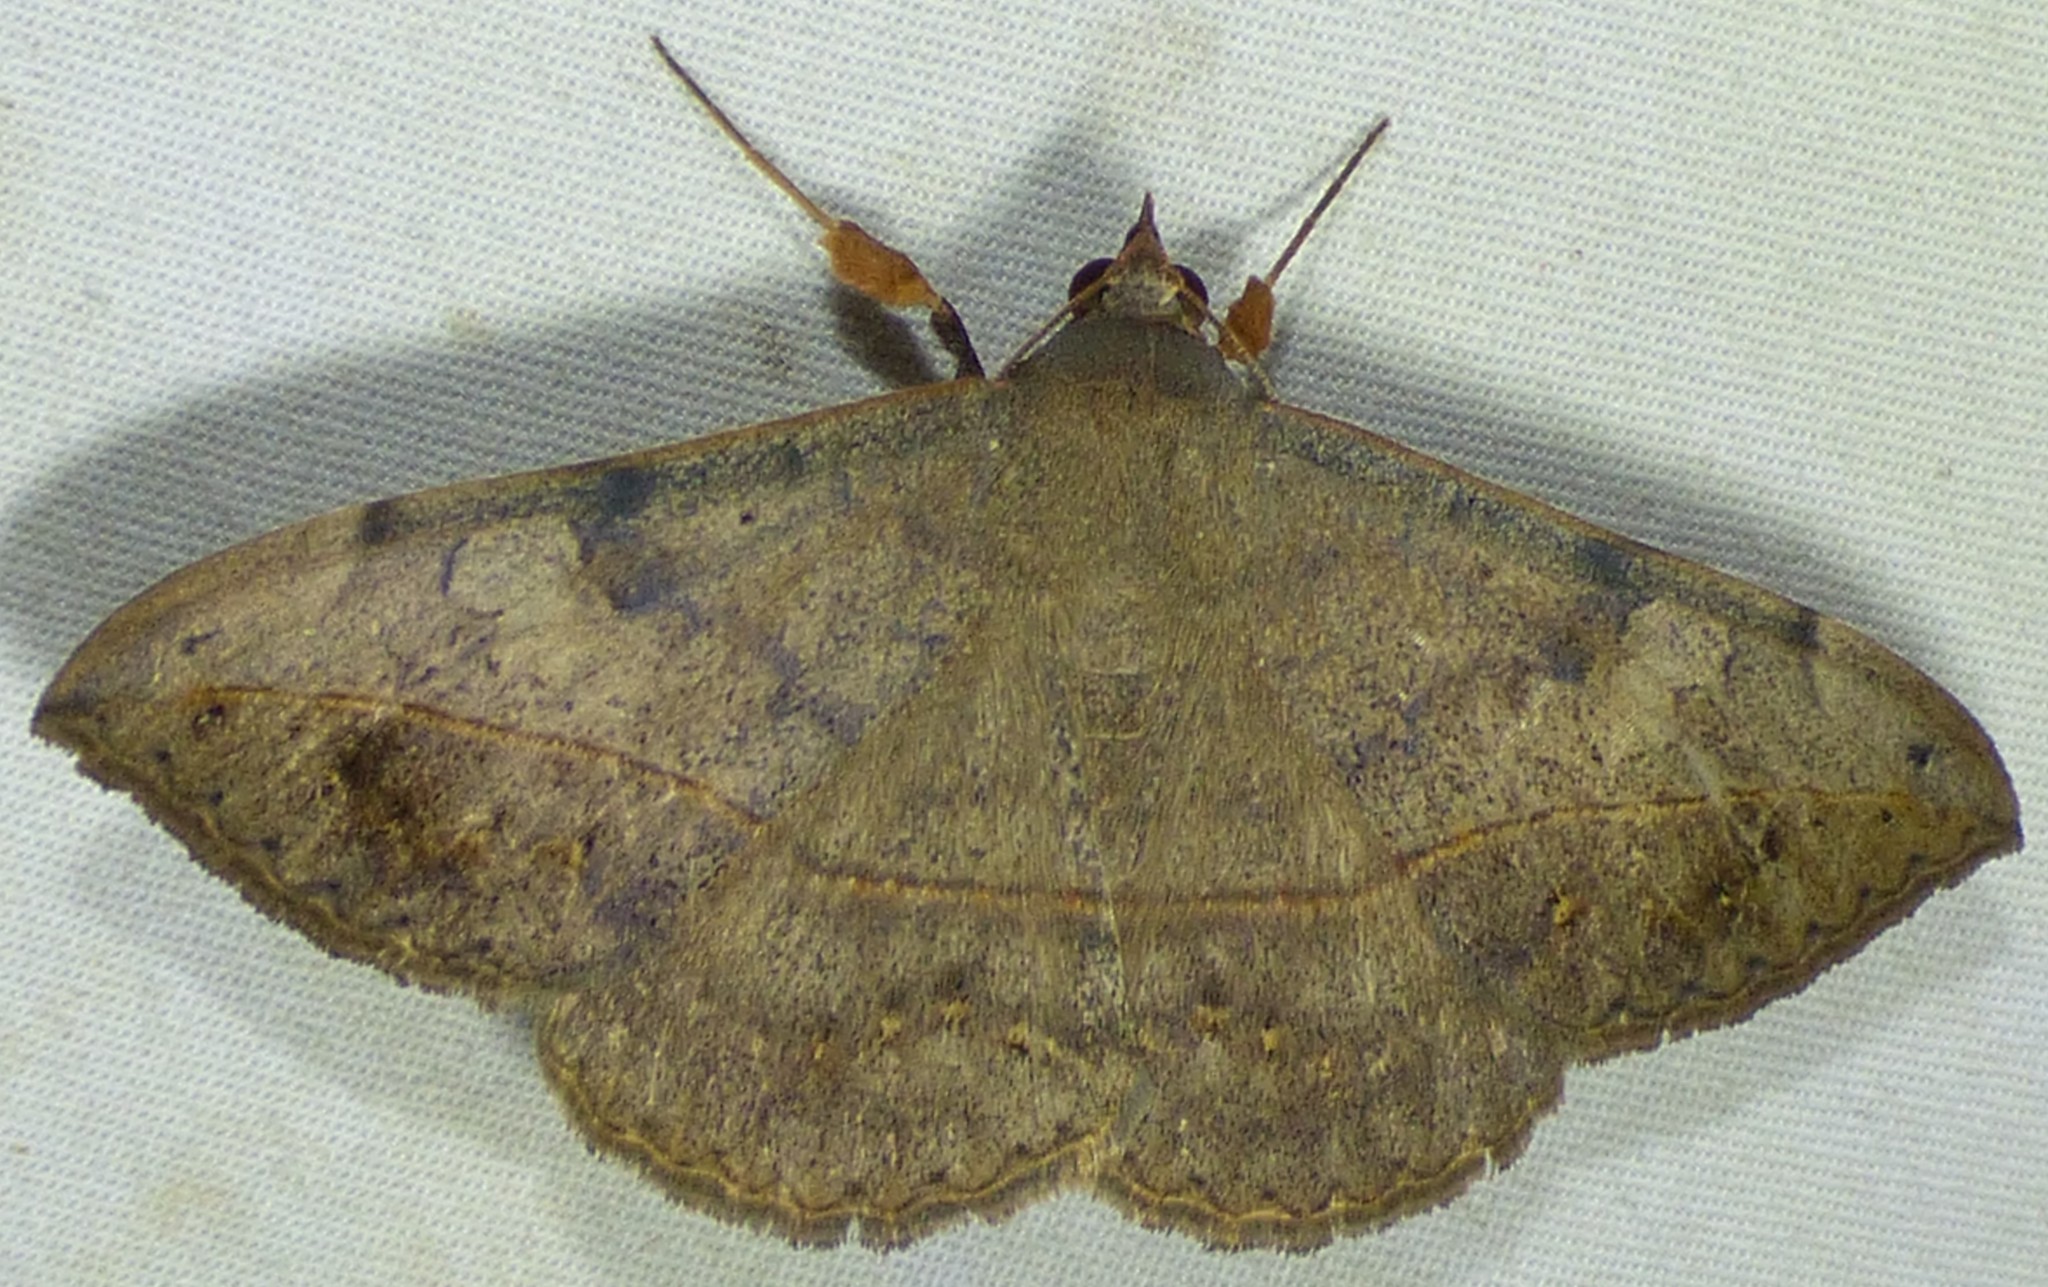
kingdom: Animalia
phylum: Arthropoda
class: Insecta
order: Lepidoptera
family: Erebidae
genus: Anticarsia
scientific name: Anticarsia gemmatalis
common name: Cutworm moth
